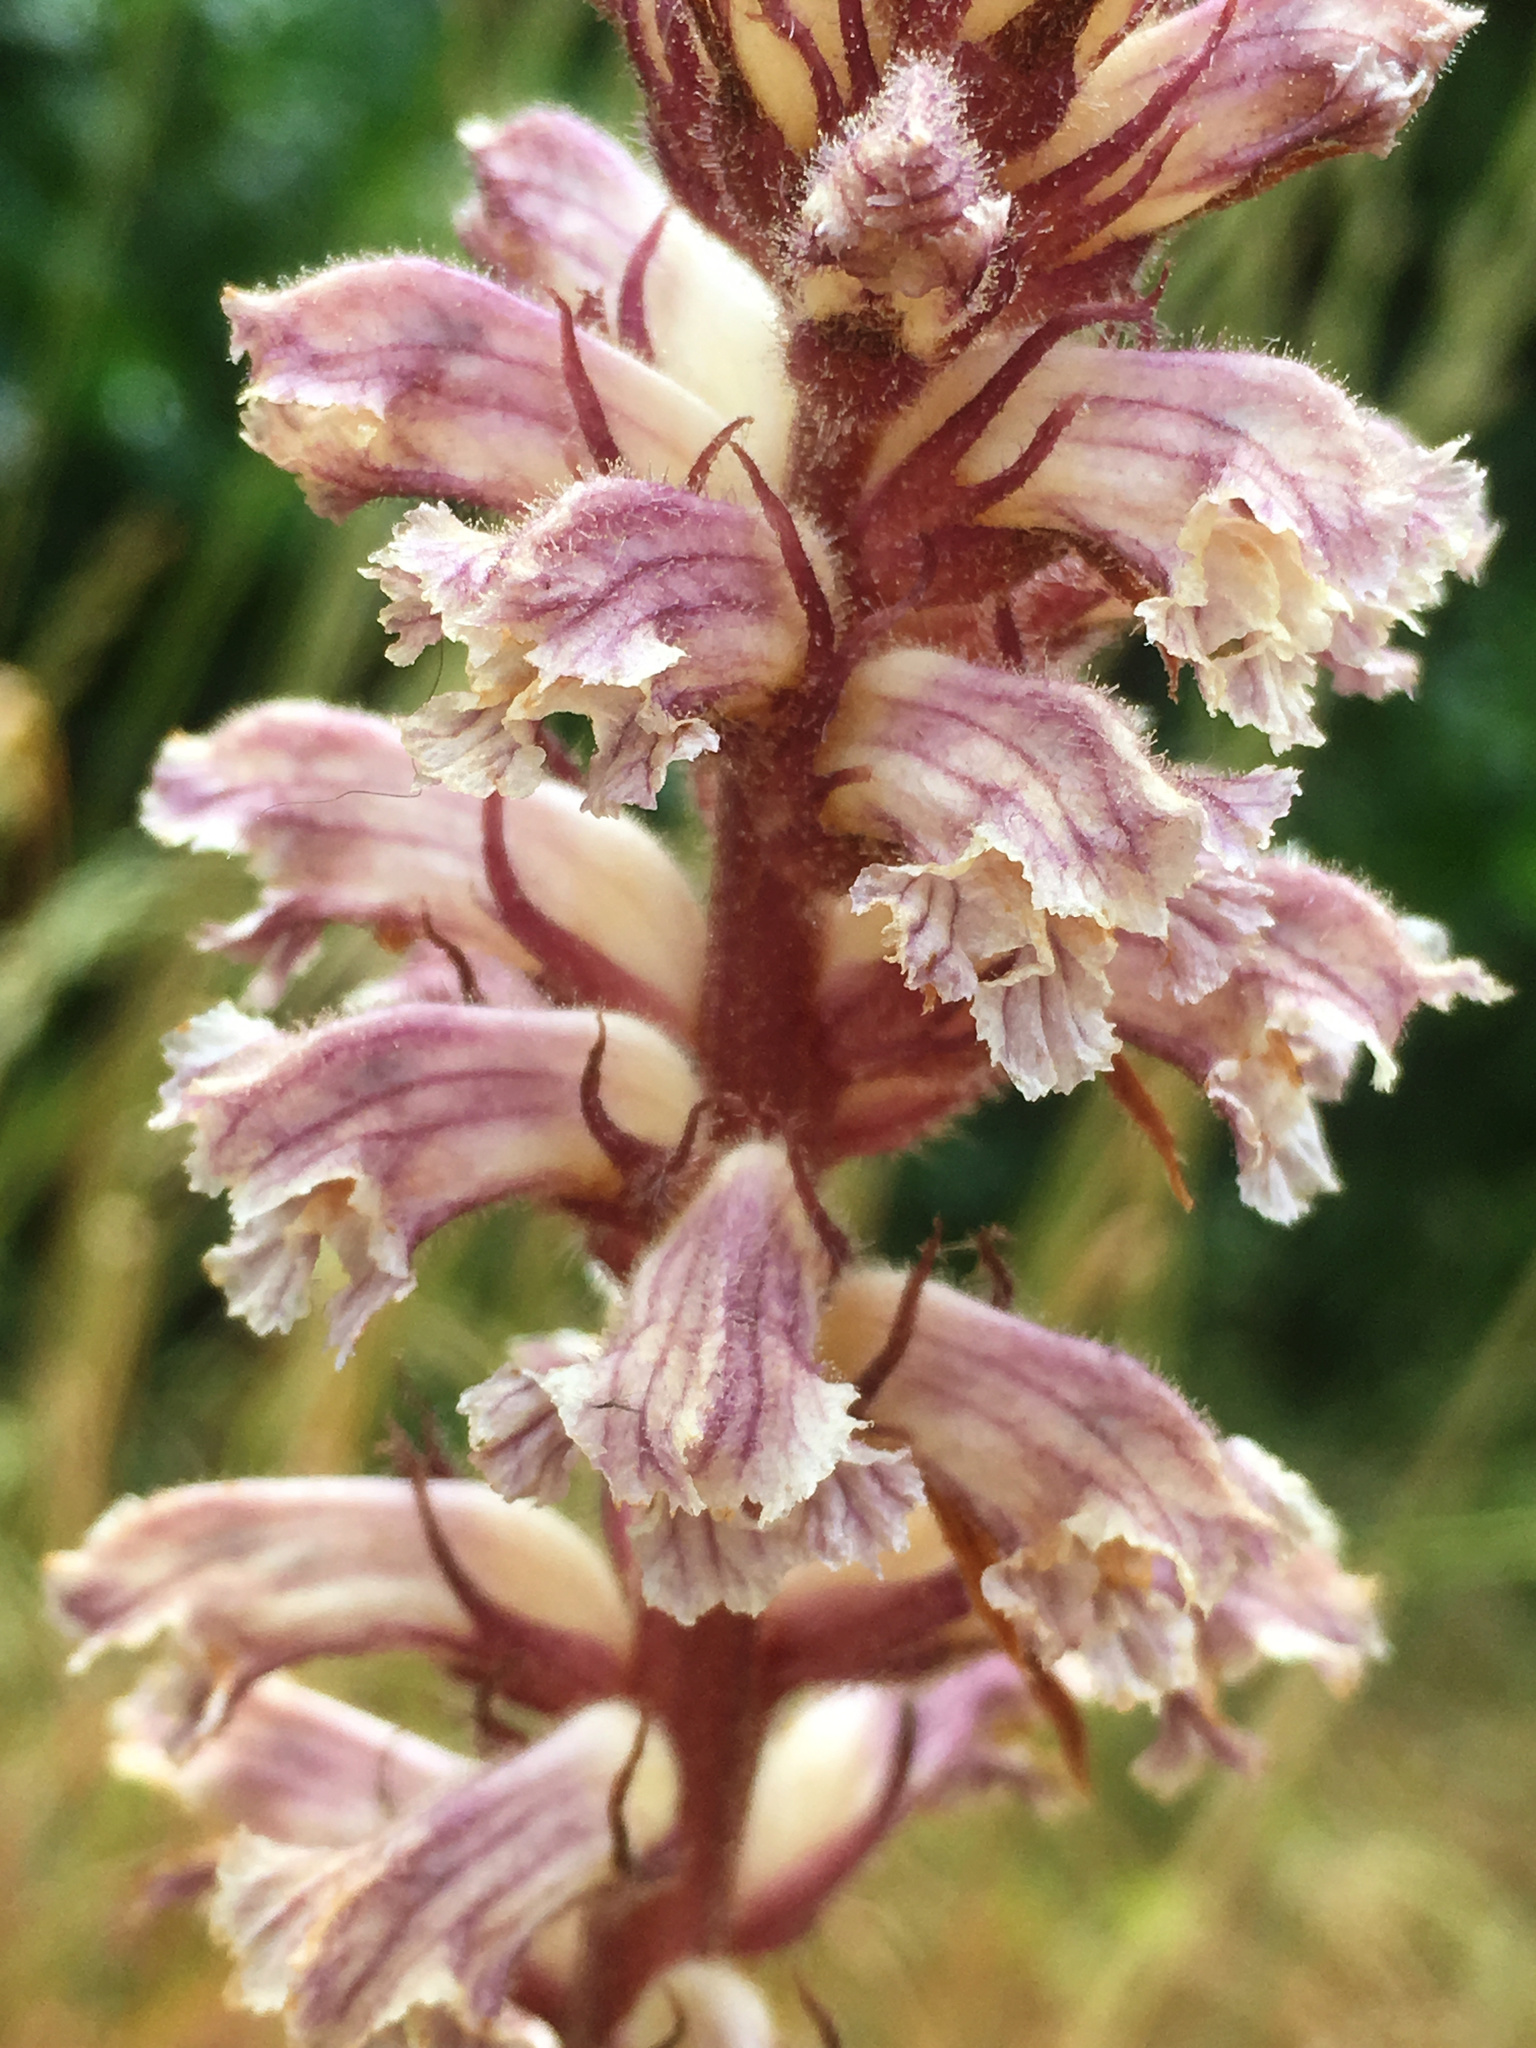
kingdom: Plantae
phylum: Tracheophyta
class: Magnoliopsida
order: Lamiales
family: Orobanchaceae
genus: Orobanche
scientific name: Orobanche minor
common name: Common broomrape
